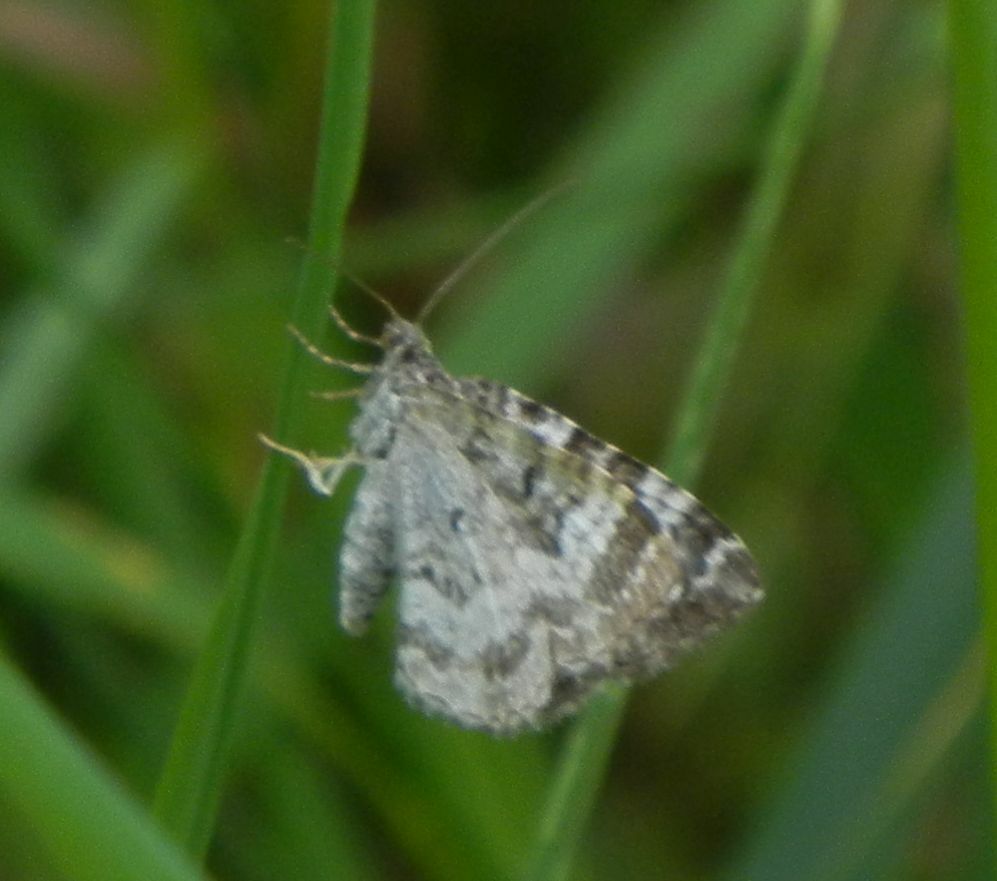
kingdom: Animalia
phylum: Arthropoda
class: Insecta
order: Lepidoptera
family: Geometridae
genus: Epirrhoe
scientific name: Epirrhoe alternata
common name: Common carpet
